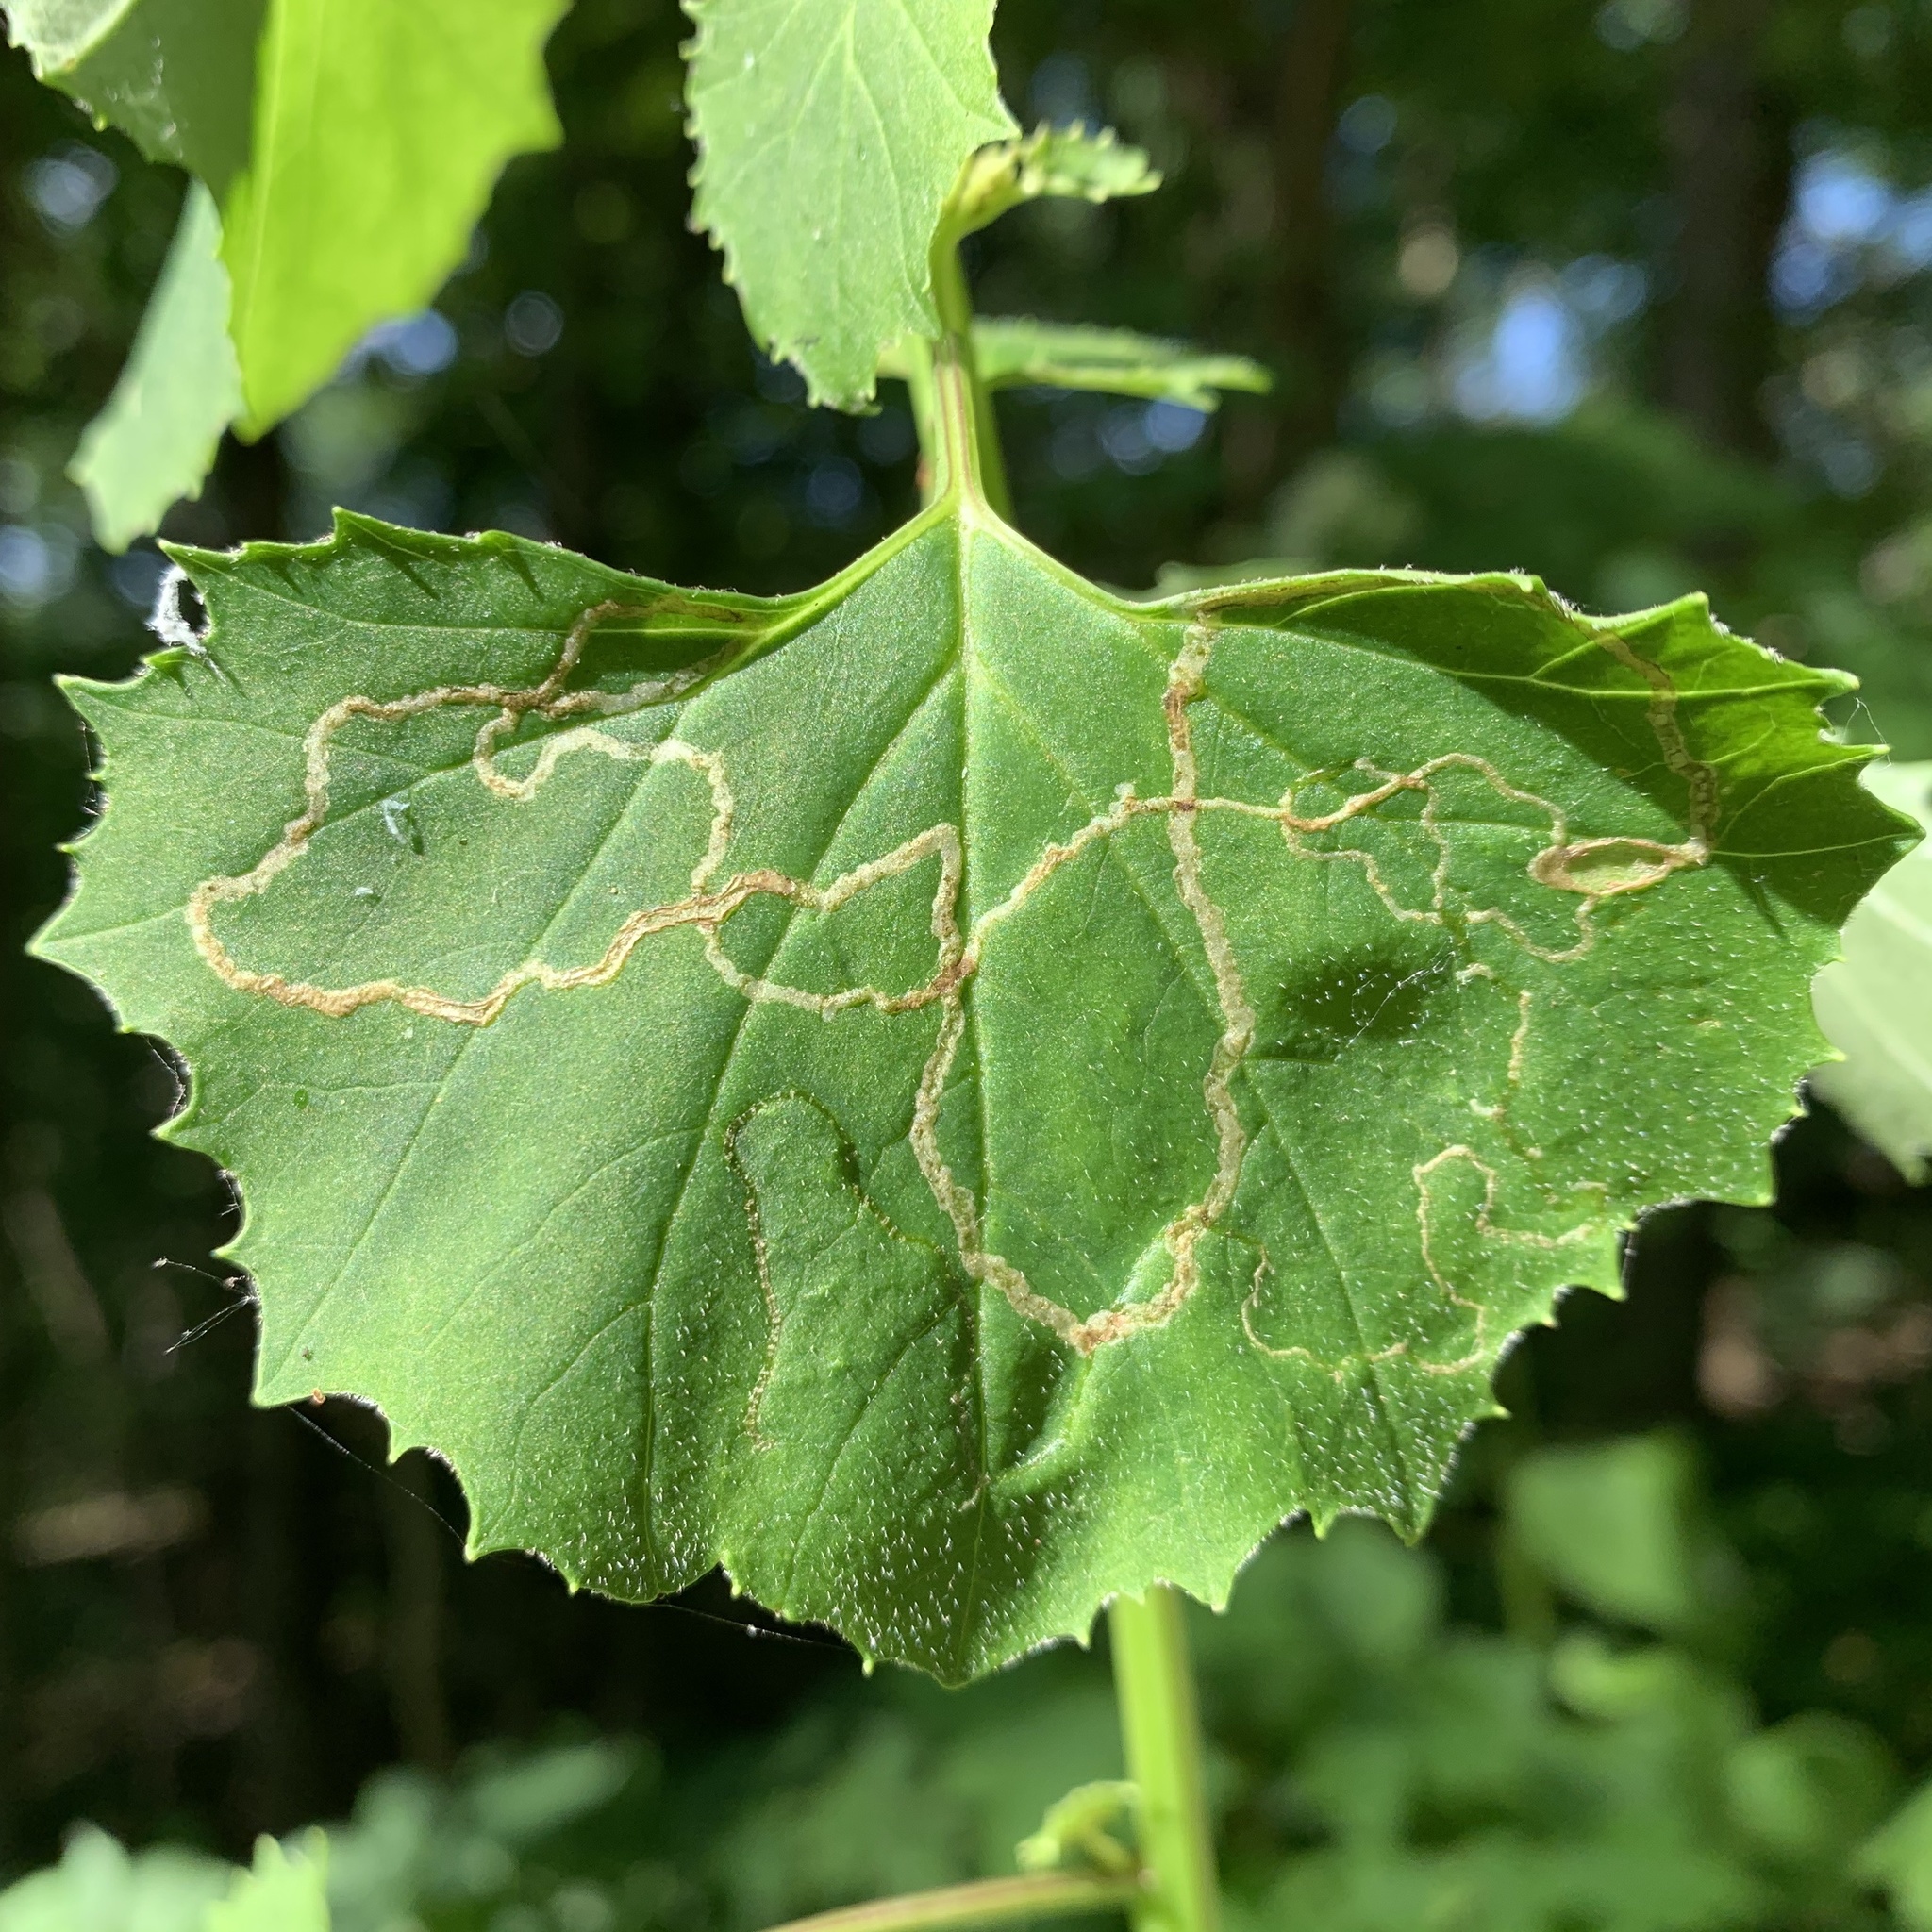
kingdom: Animalia
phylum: Arthropoda
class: Insecta
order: Lepidoptera
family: Gracillariidae
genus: Phyllocnistis
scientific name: Phyllocnistis insignis
